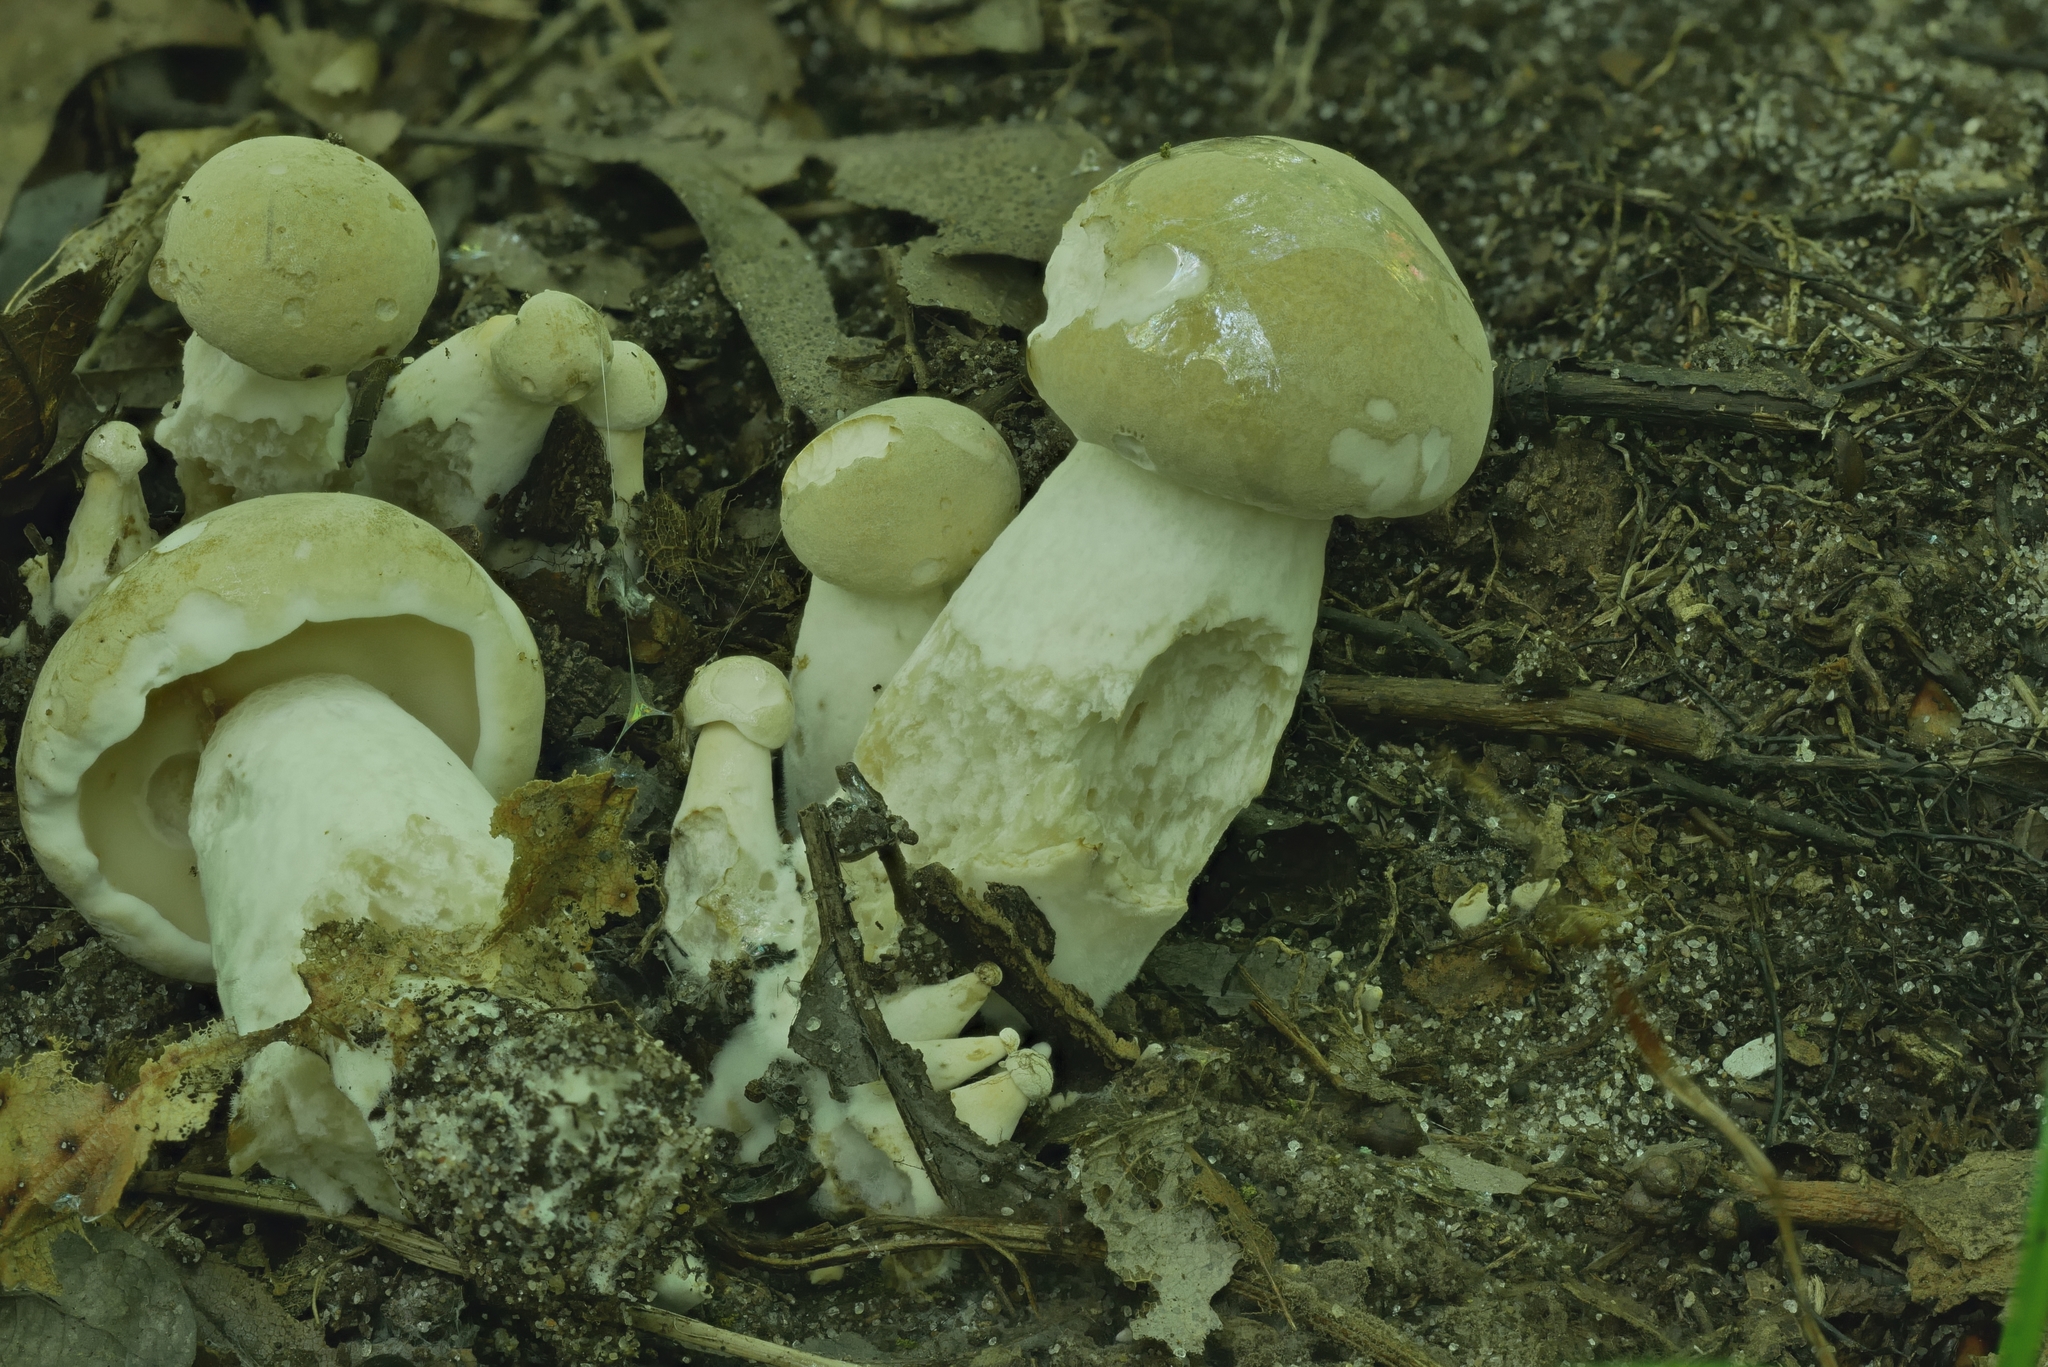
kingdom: Fungi
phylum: Basidiomycota
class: Agaricomycetes
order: Boletales
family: Boletaceae
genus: Imleria
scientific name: Imleria pallida
